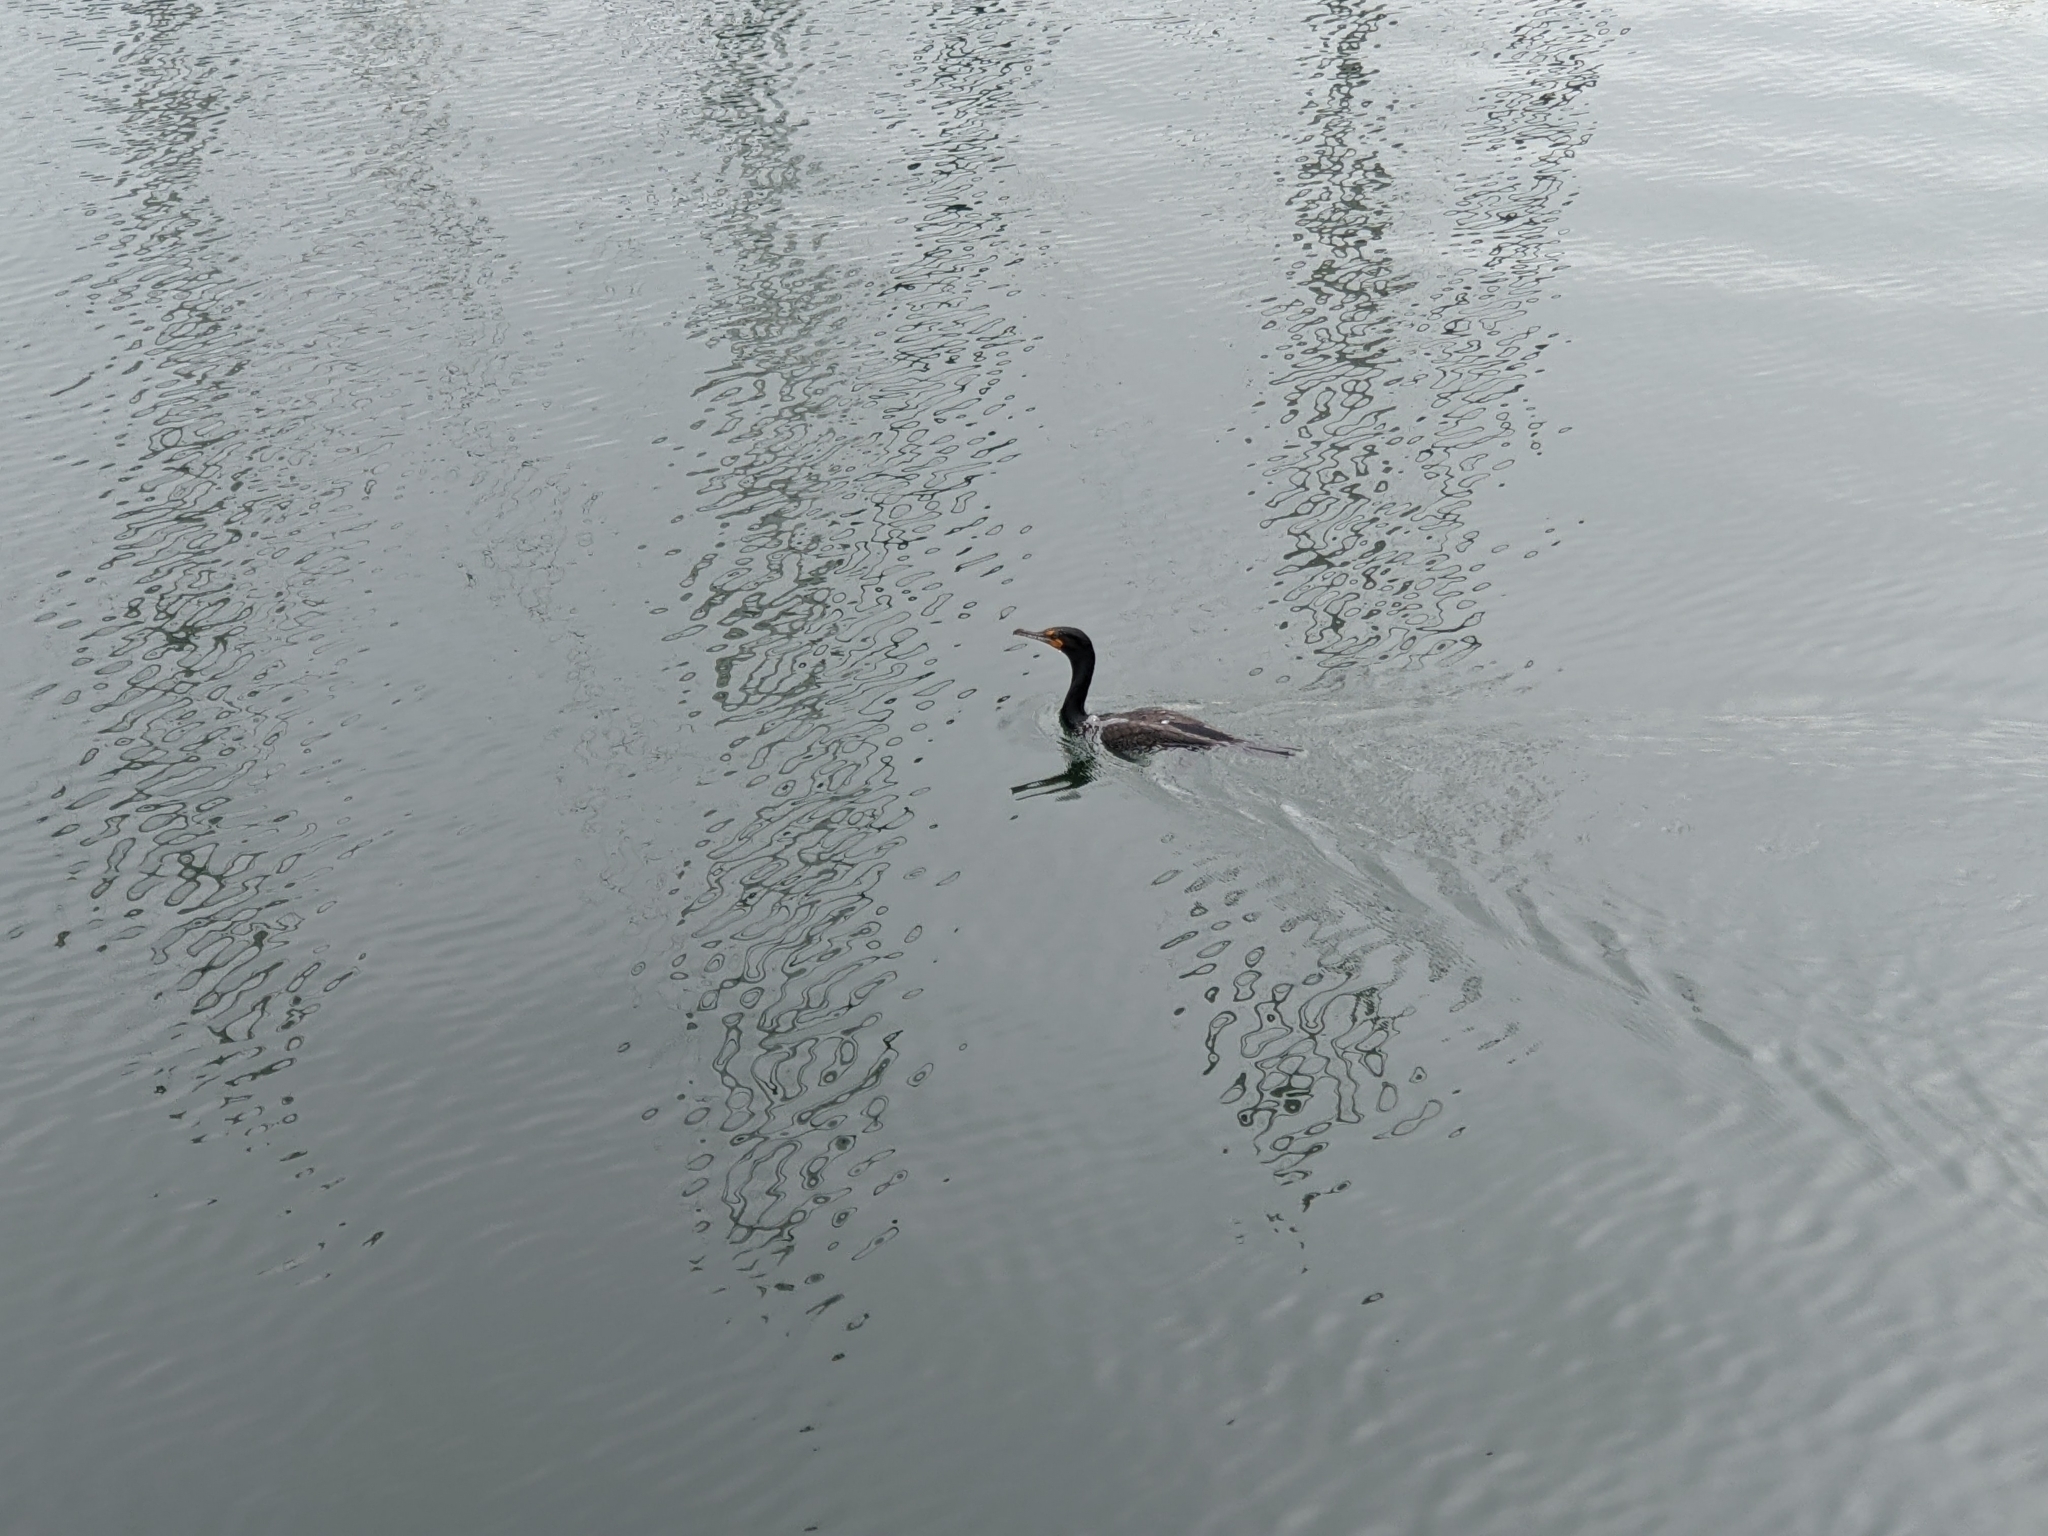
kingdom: Animalia
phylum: Chordata
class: Aves
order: Suliformes
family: Phalacrocoracidae
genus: Phalacrocorax
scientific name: Phalacrocorax auritus
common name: Double-crested cormorant
